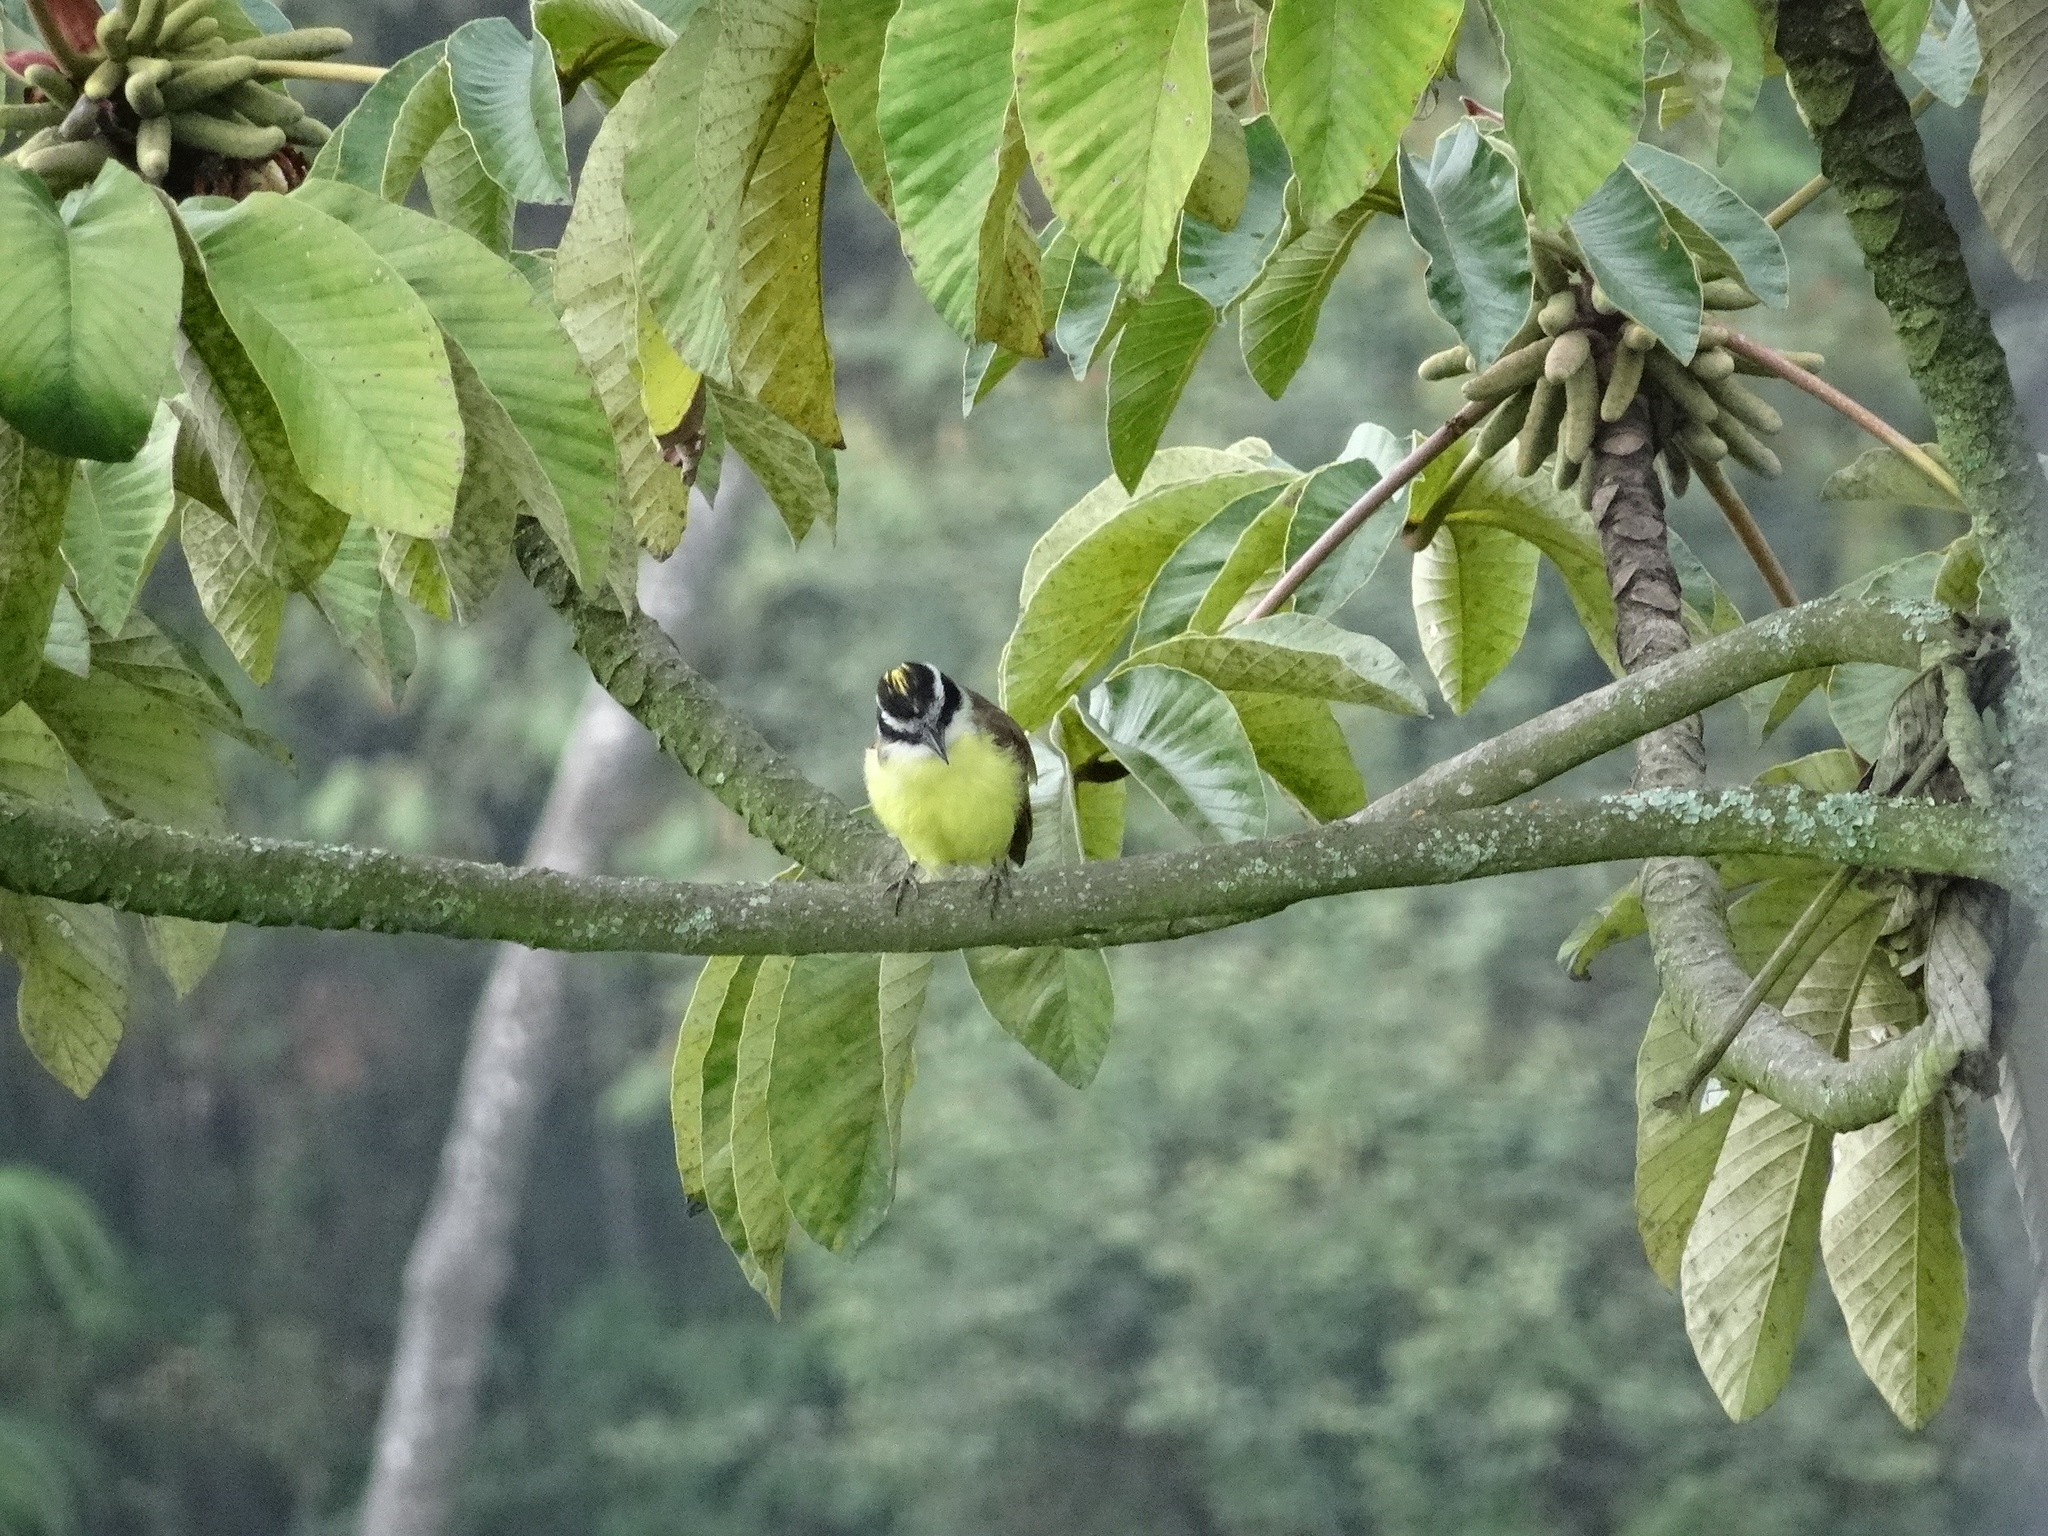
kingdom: Animalia
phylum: Chordata
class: Aves
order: Passeriformes
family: Tyrannidae
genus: Pitangus
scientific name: Pitangus sulphuratus
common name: Great kiskadee
